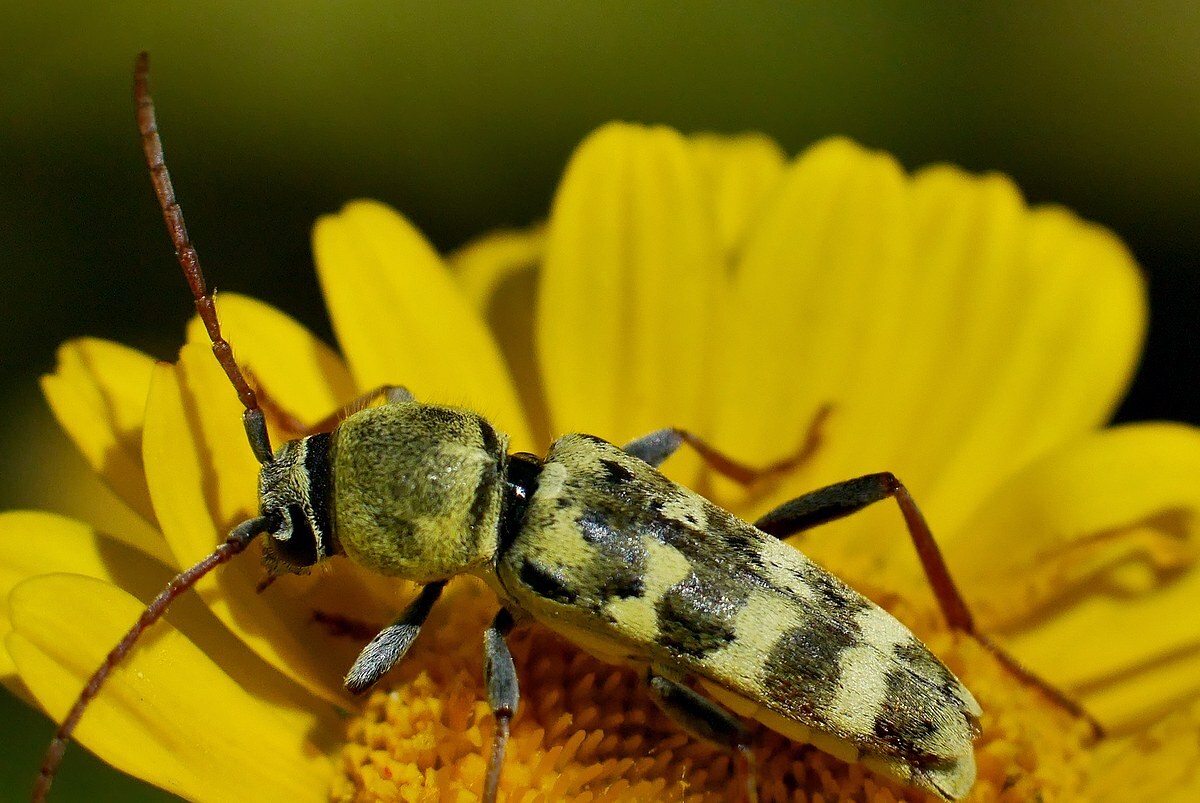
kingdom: Animalia
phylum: Arthropoda
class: Insecta
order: Coleoptera
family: Cerambycidae
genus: Plagionotus
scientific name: Plagionotus floralis
